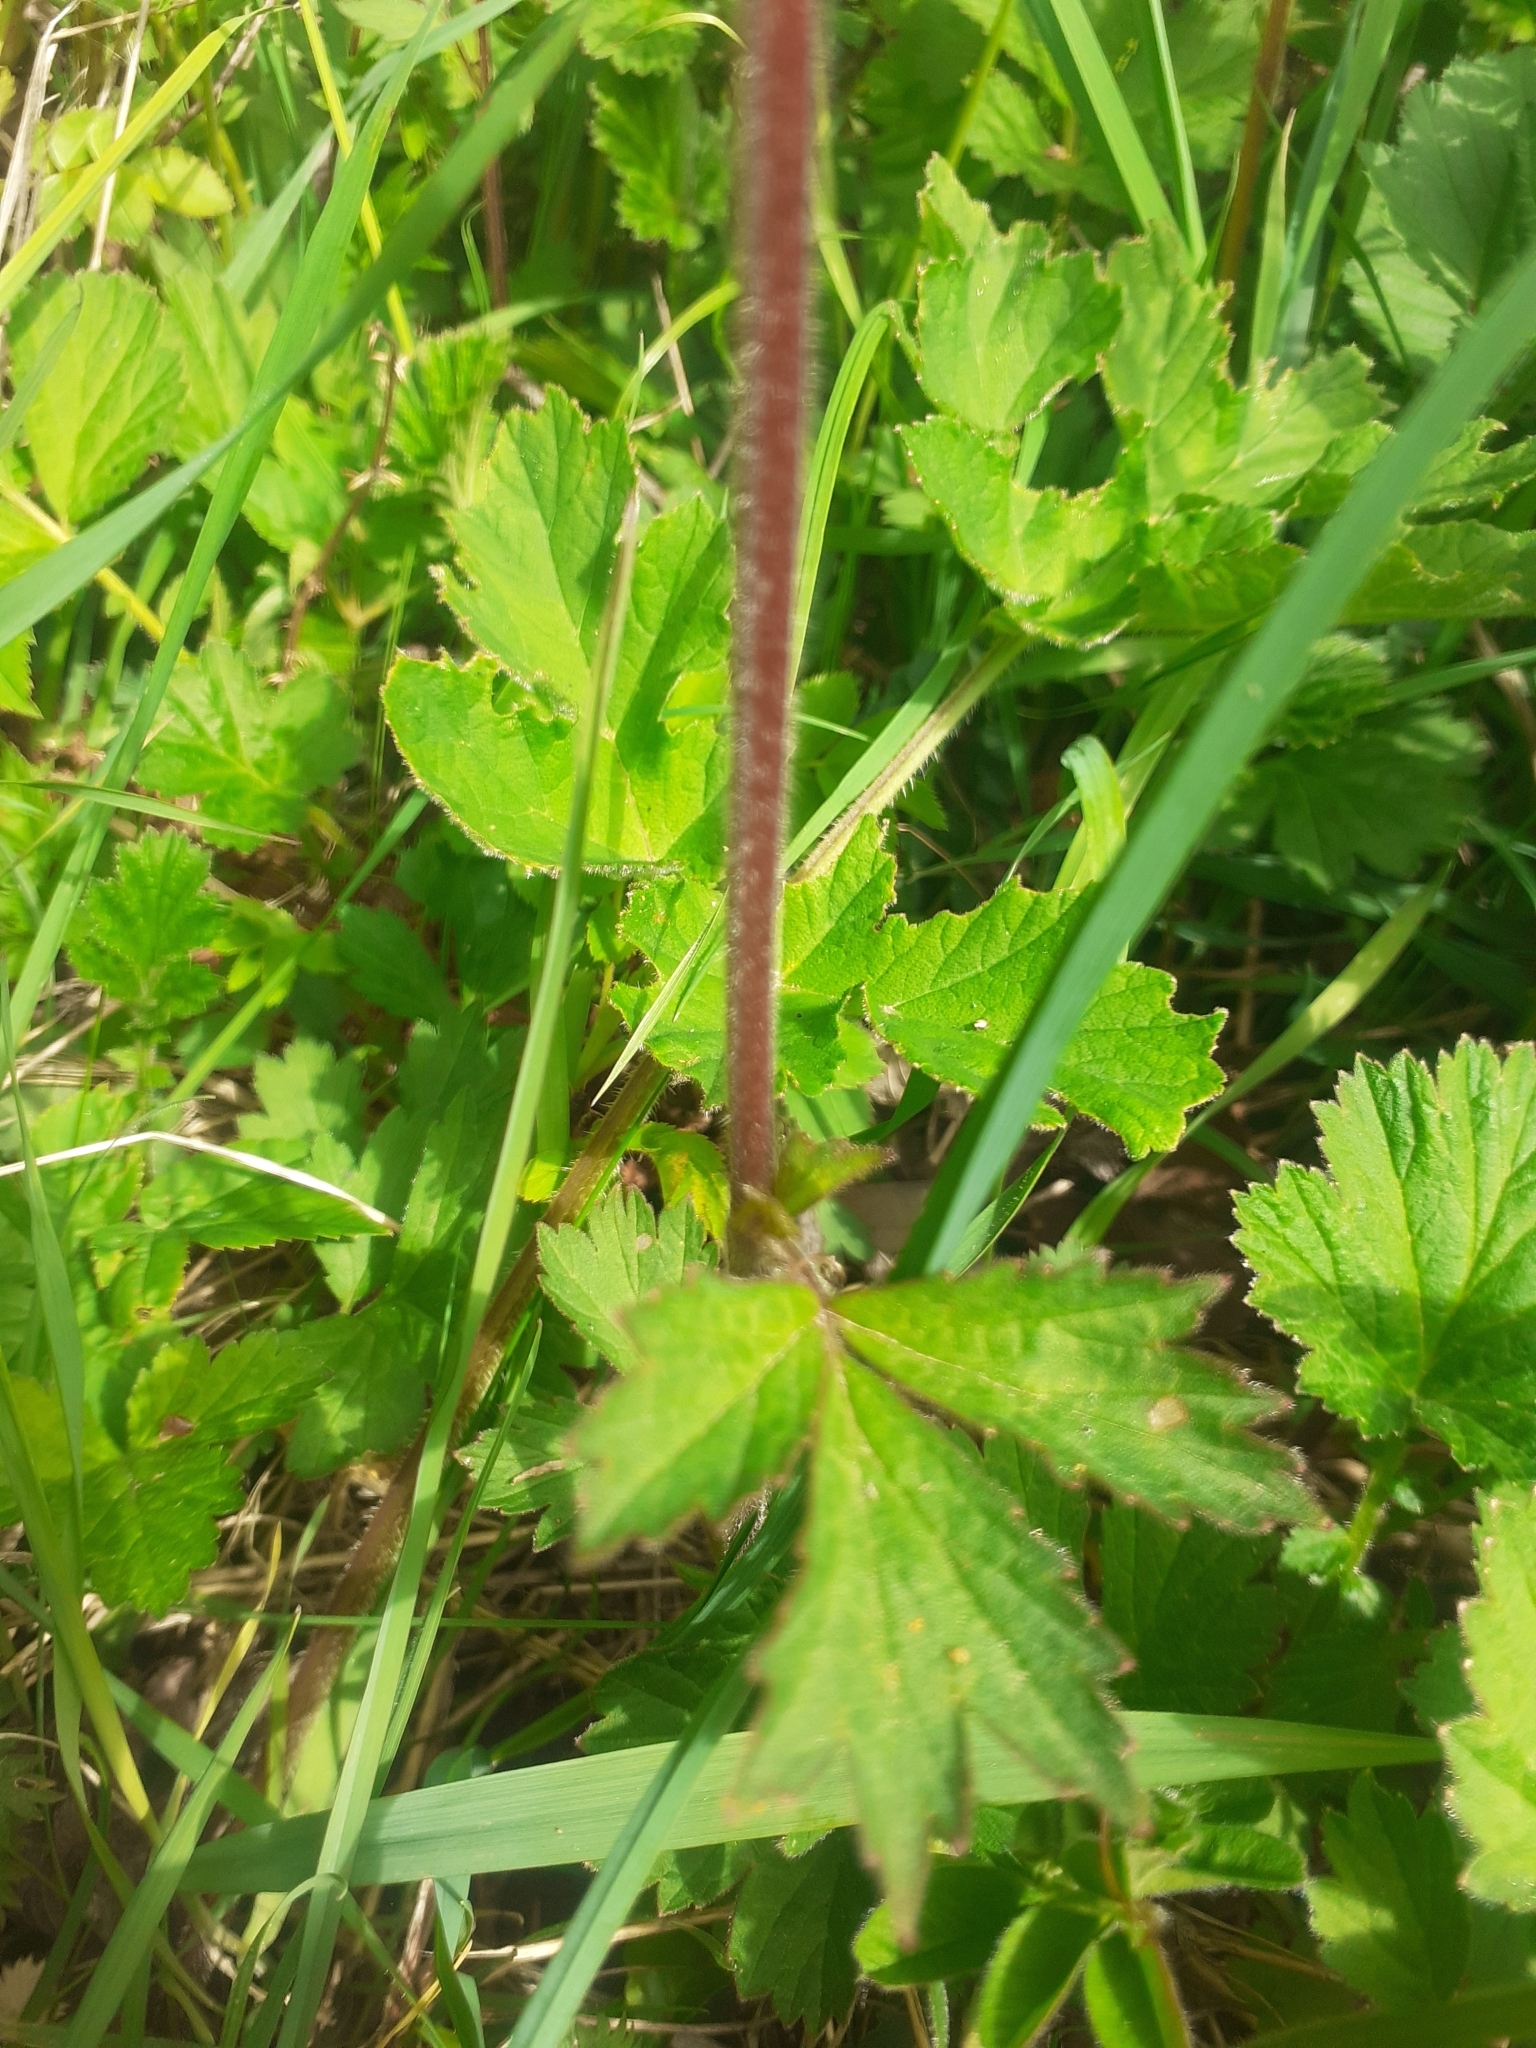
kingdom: Plantae
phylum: Tracheophyta
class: Magnoliopsida
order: Rosales
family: Rosaceae
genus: Geum
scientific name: Geum rivale
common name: Water avens
